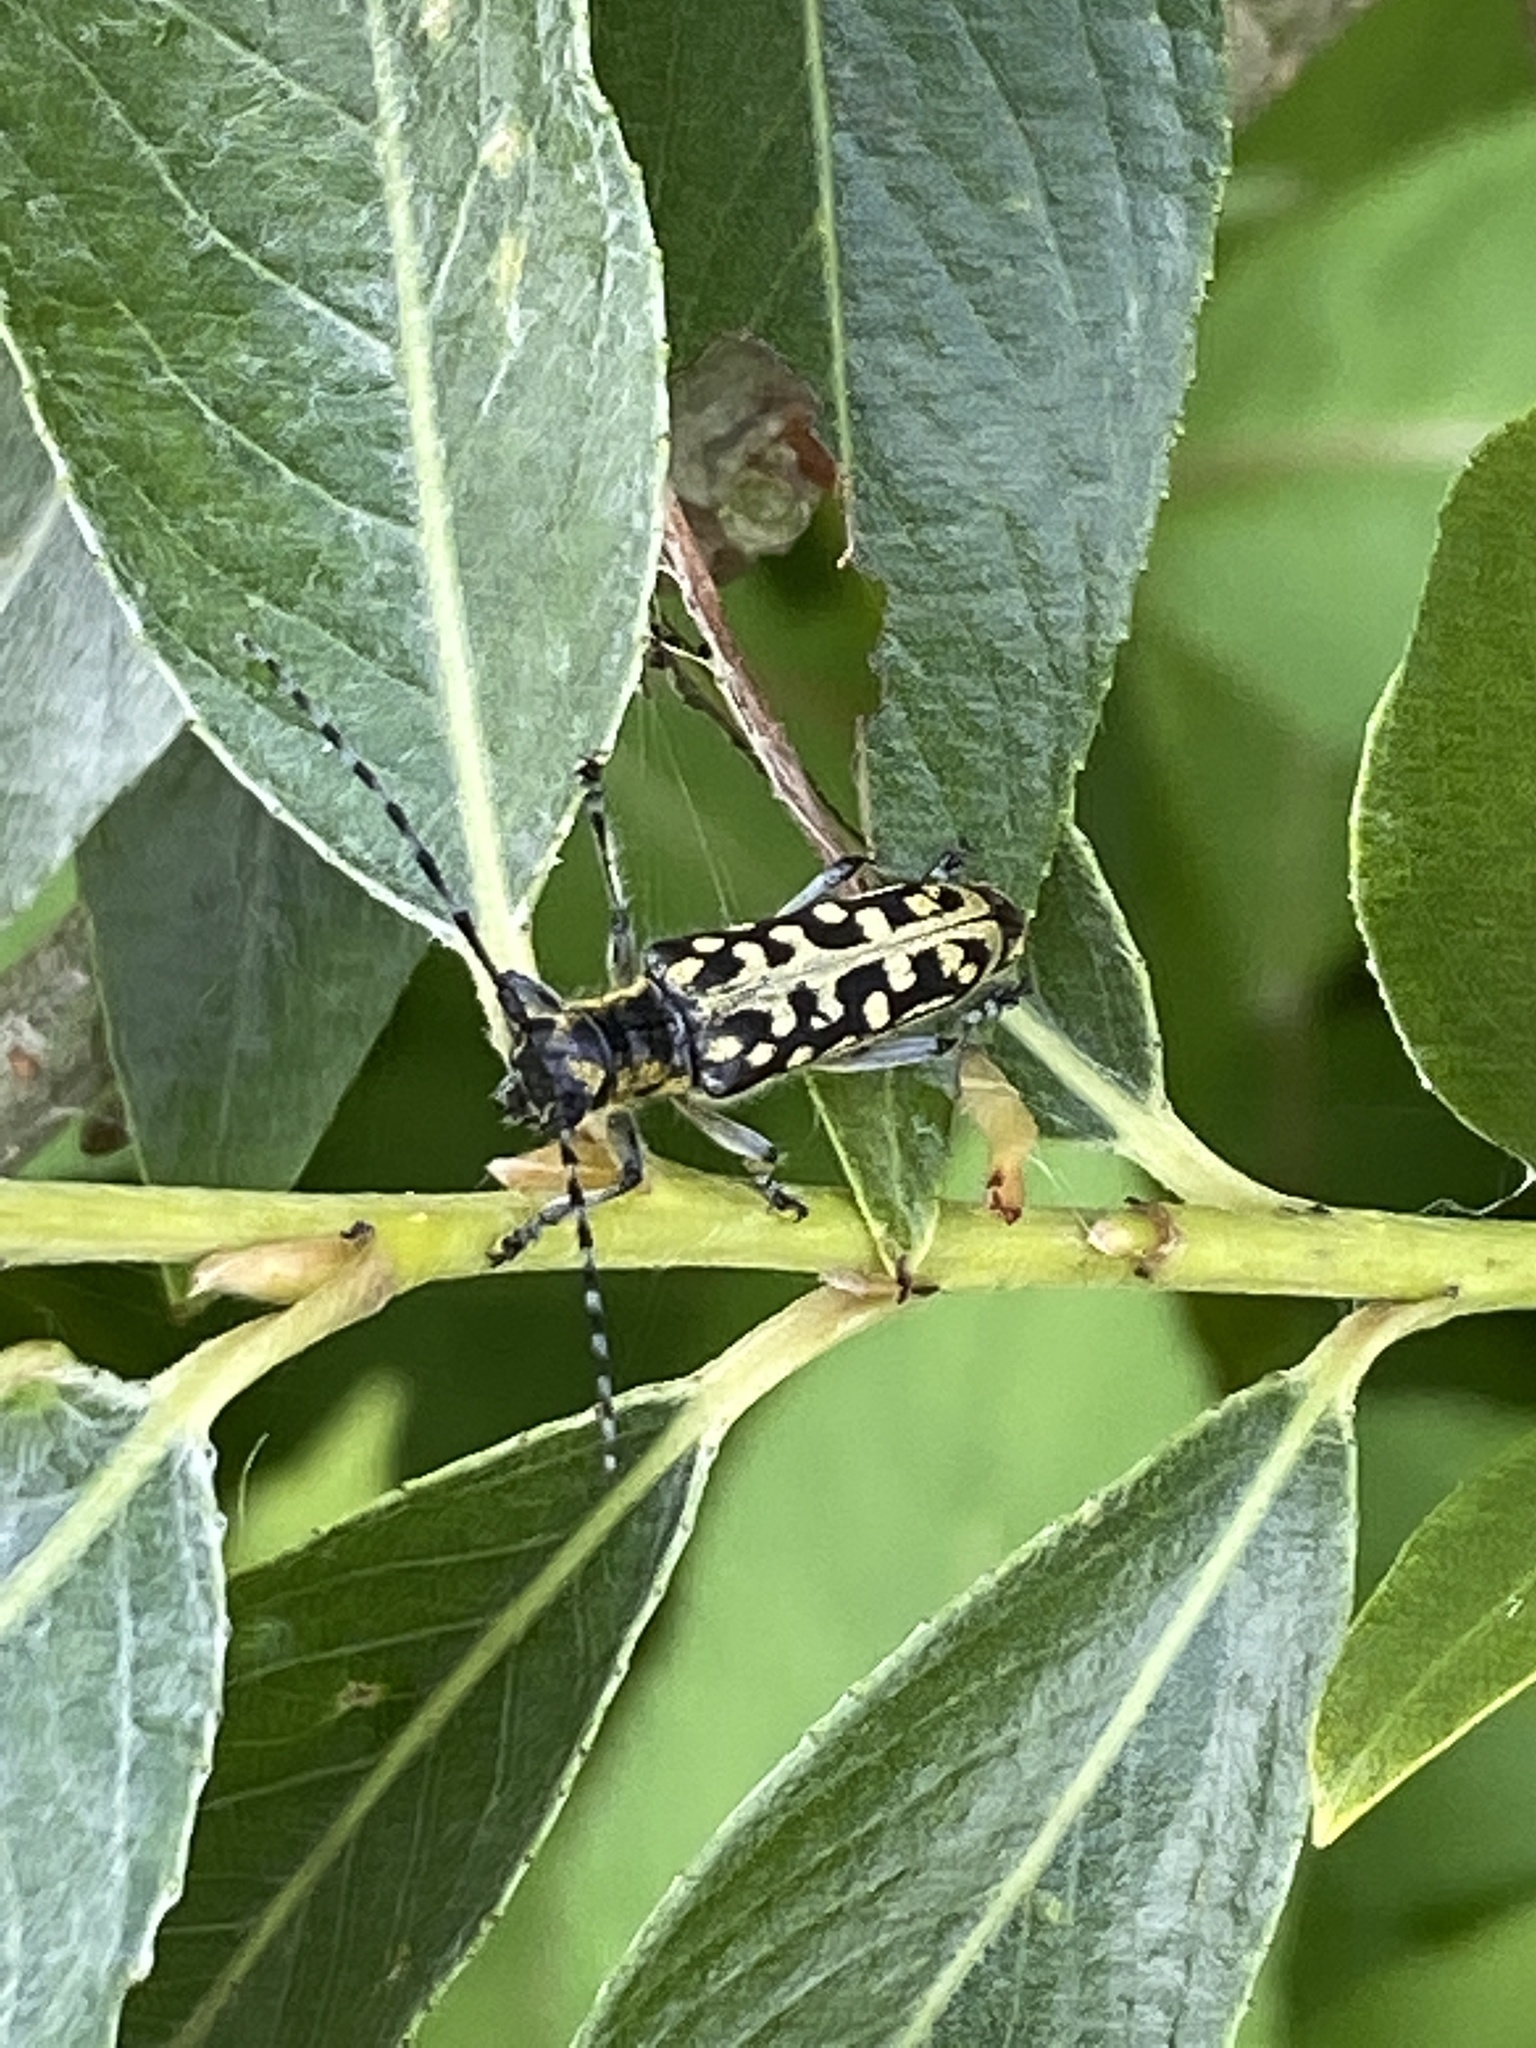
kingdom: Animalia
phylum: Arthropoda
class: Insecta
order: Coleoptera
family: Cerambycidae
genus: Saperda
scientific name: Saperda scalaris
